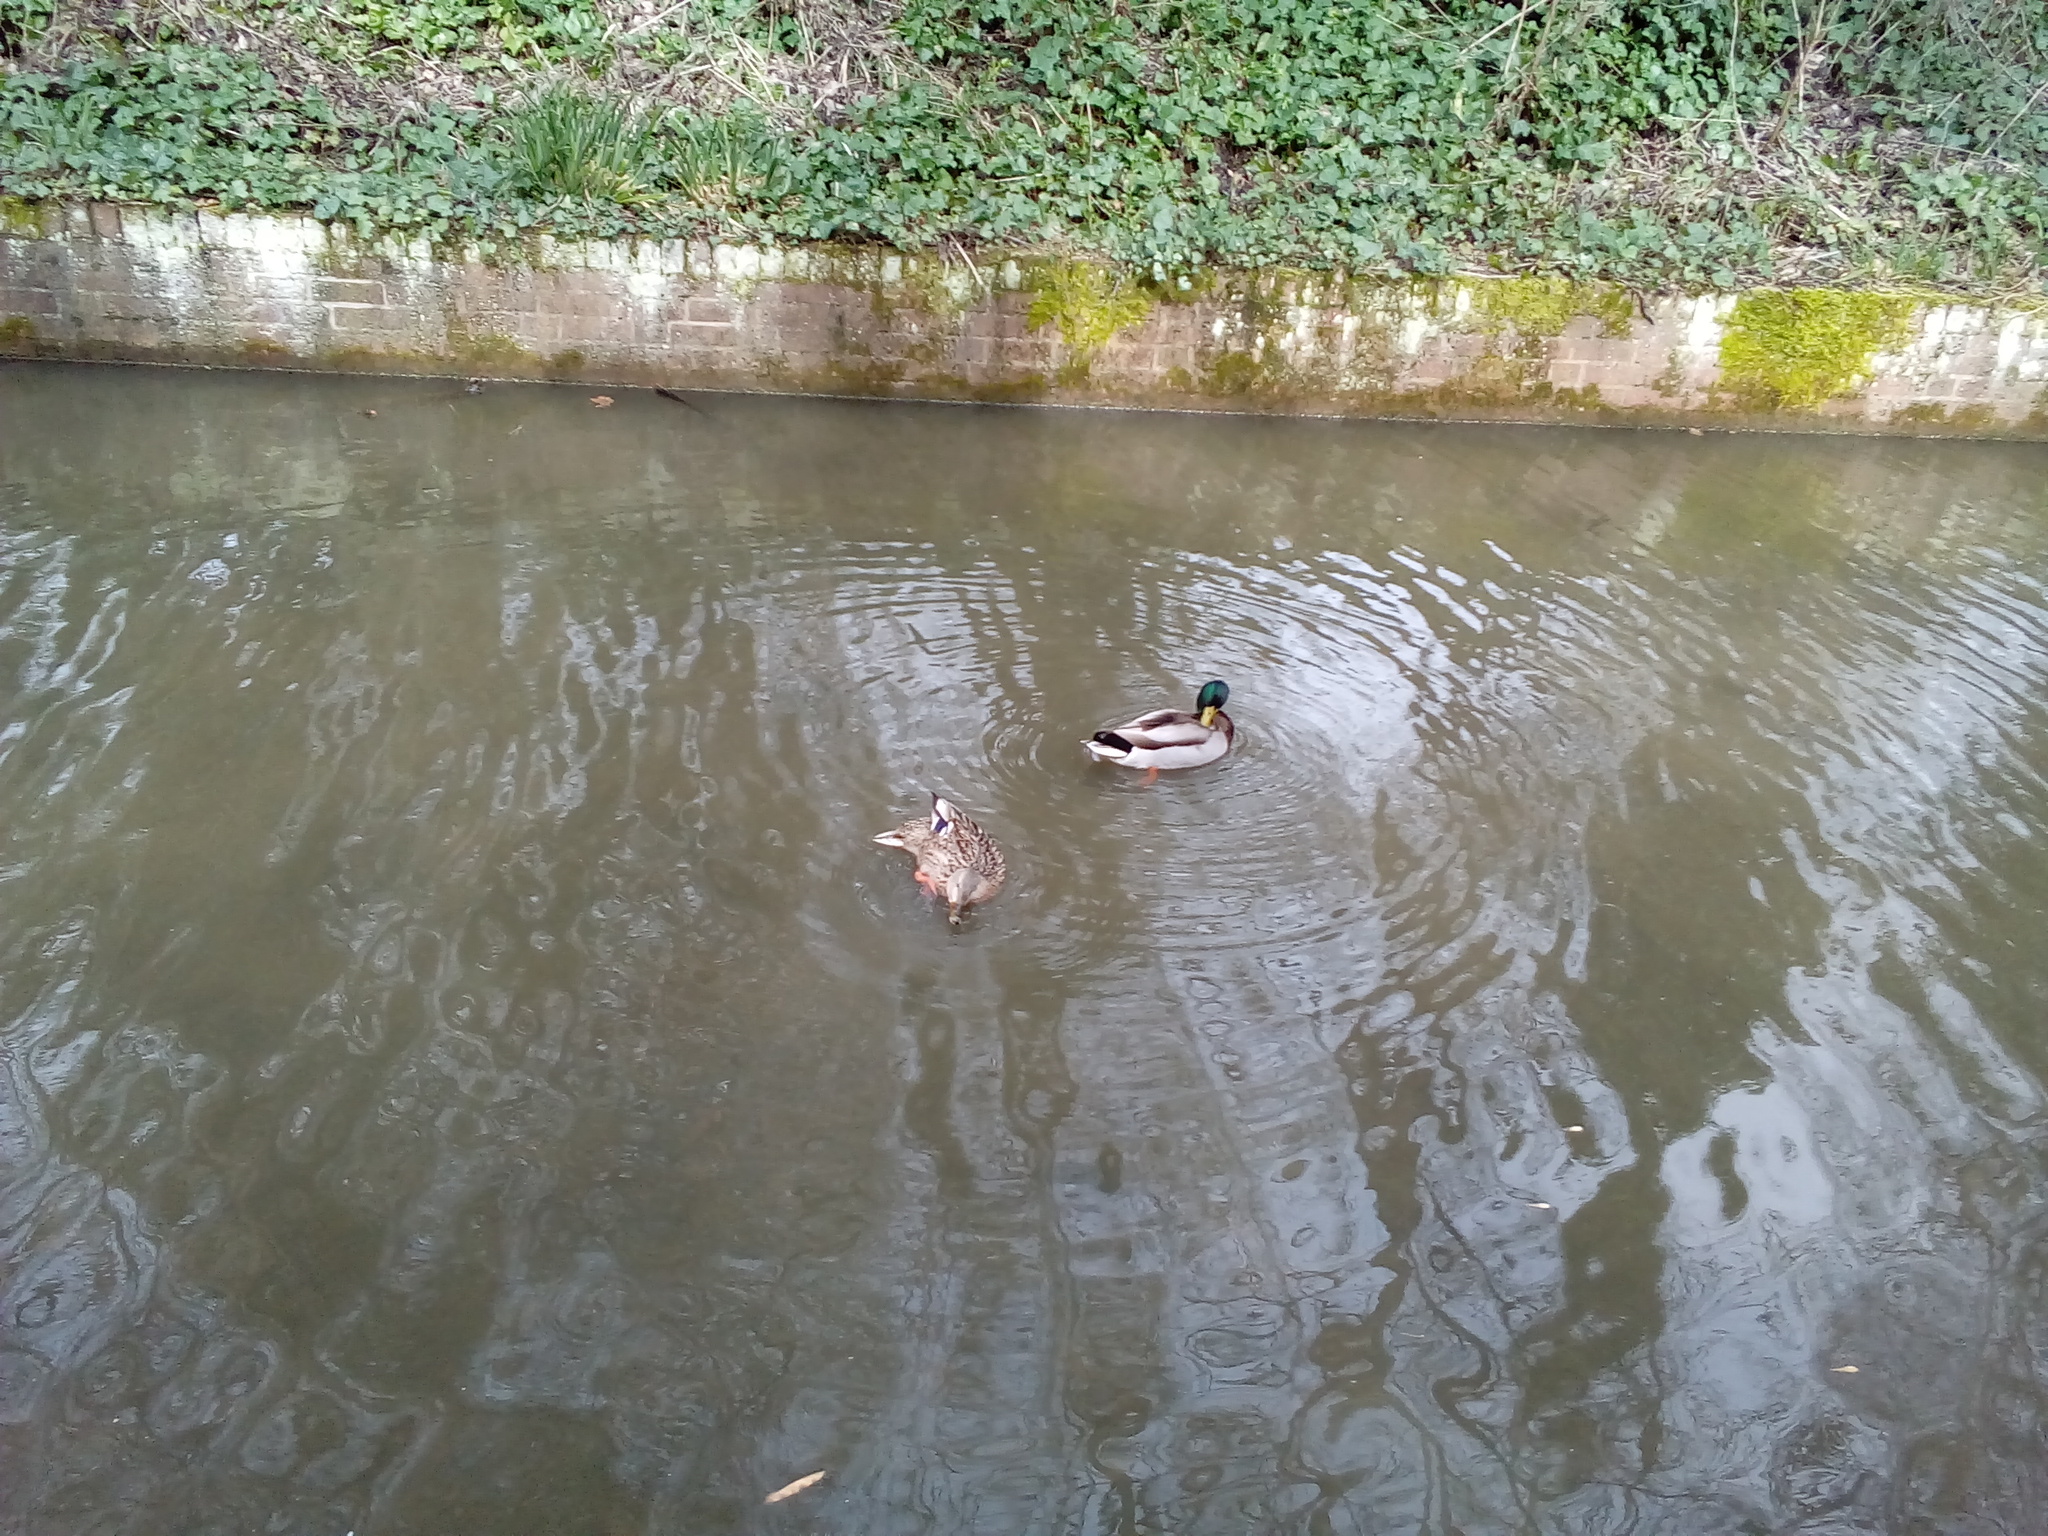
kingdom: Animalia
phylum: Chordata
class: Aves
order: Anseriformes
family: Anatidae
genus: Anas
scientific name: Anas platyrhynchos
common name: Mallard
